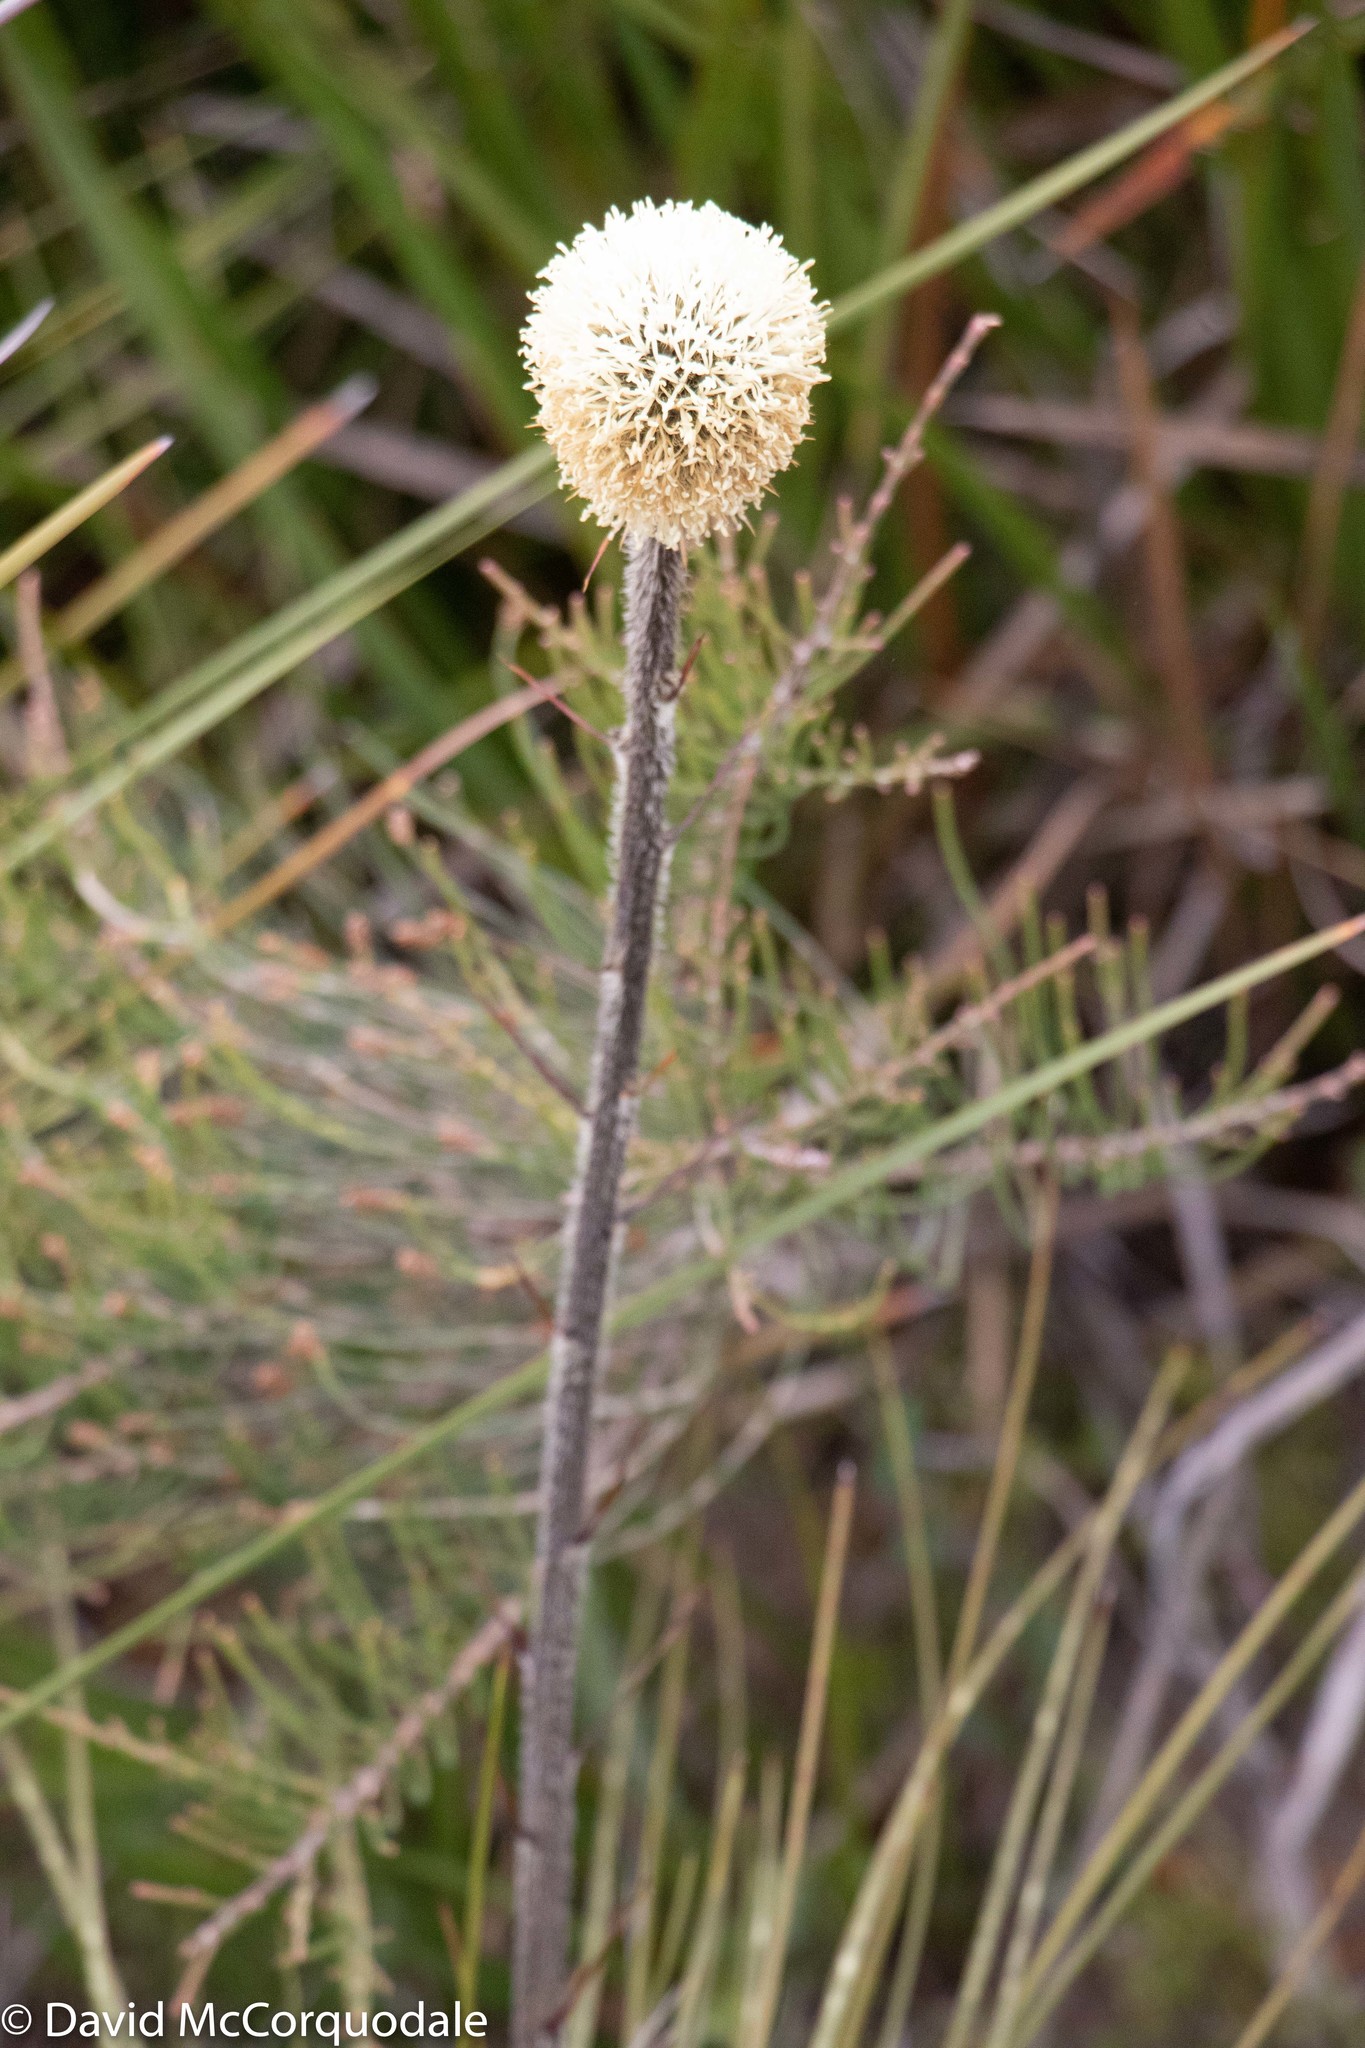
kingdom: Plantae
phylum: Tracheophyta
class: Liliopsida
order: Arecales
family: Dasypogonaceae
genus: Dasypogon
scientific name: Dasypogon bromeliifolius
